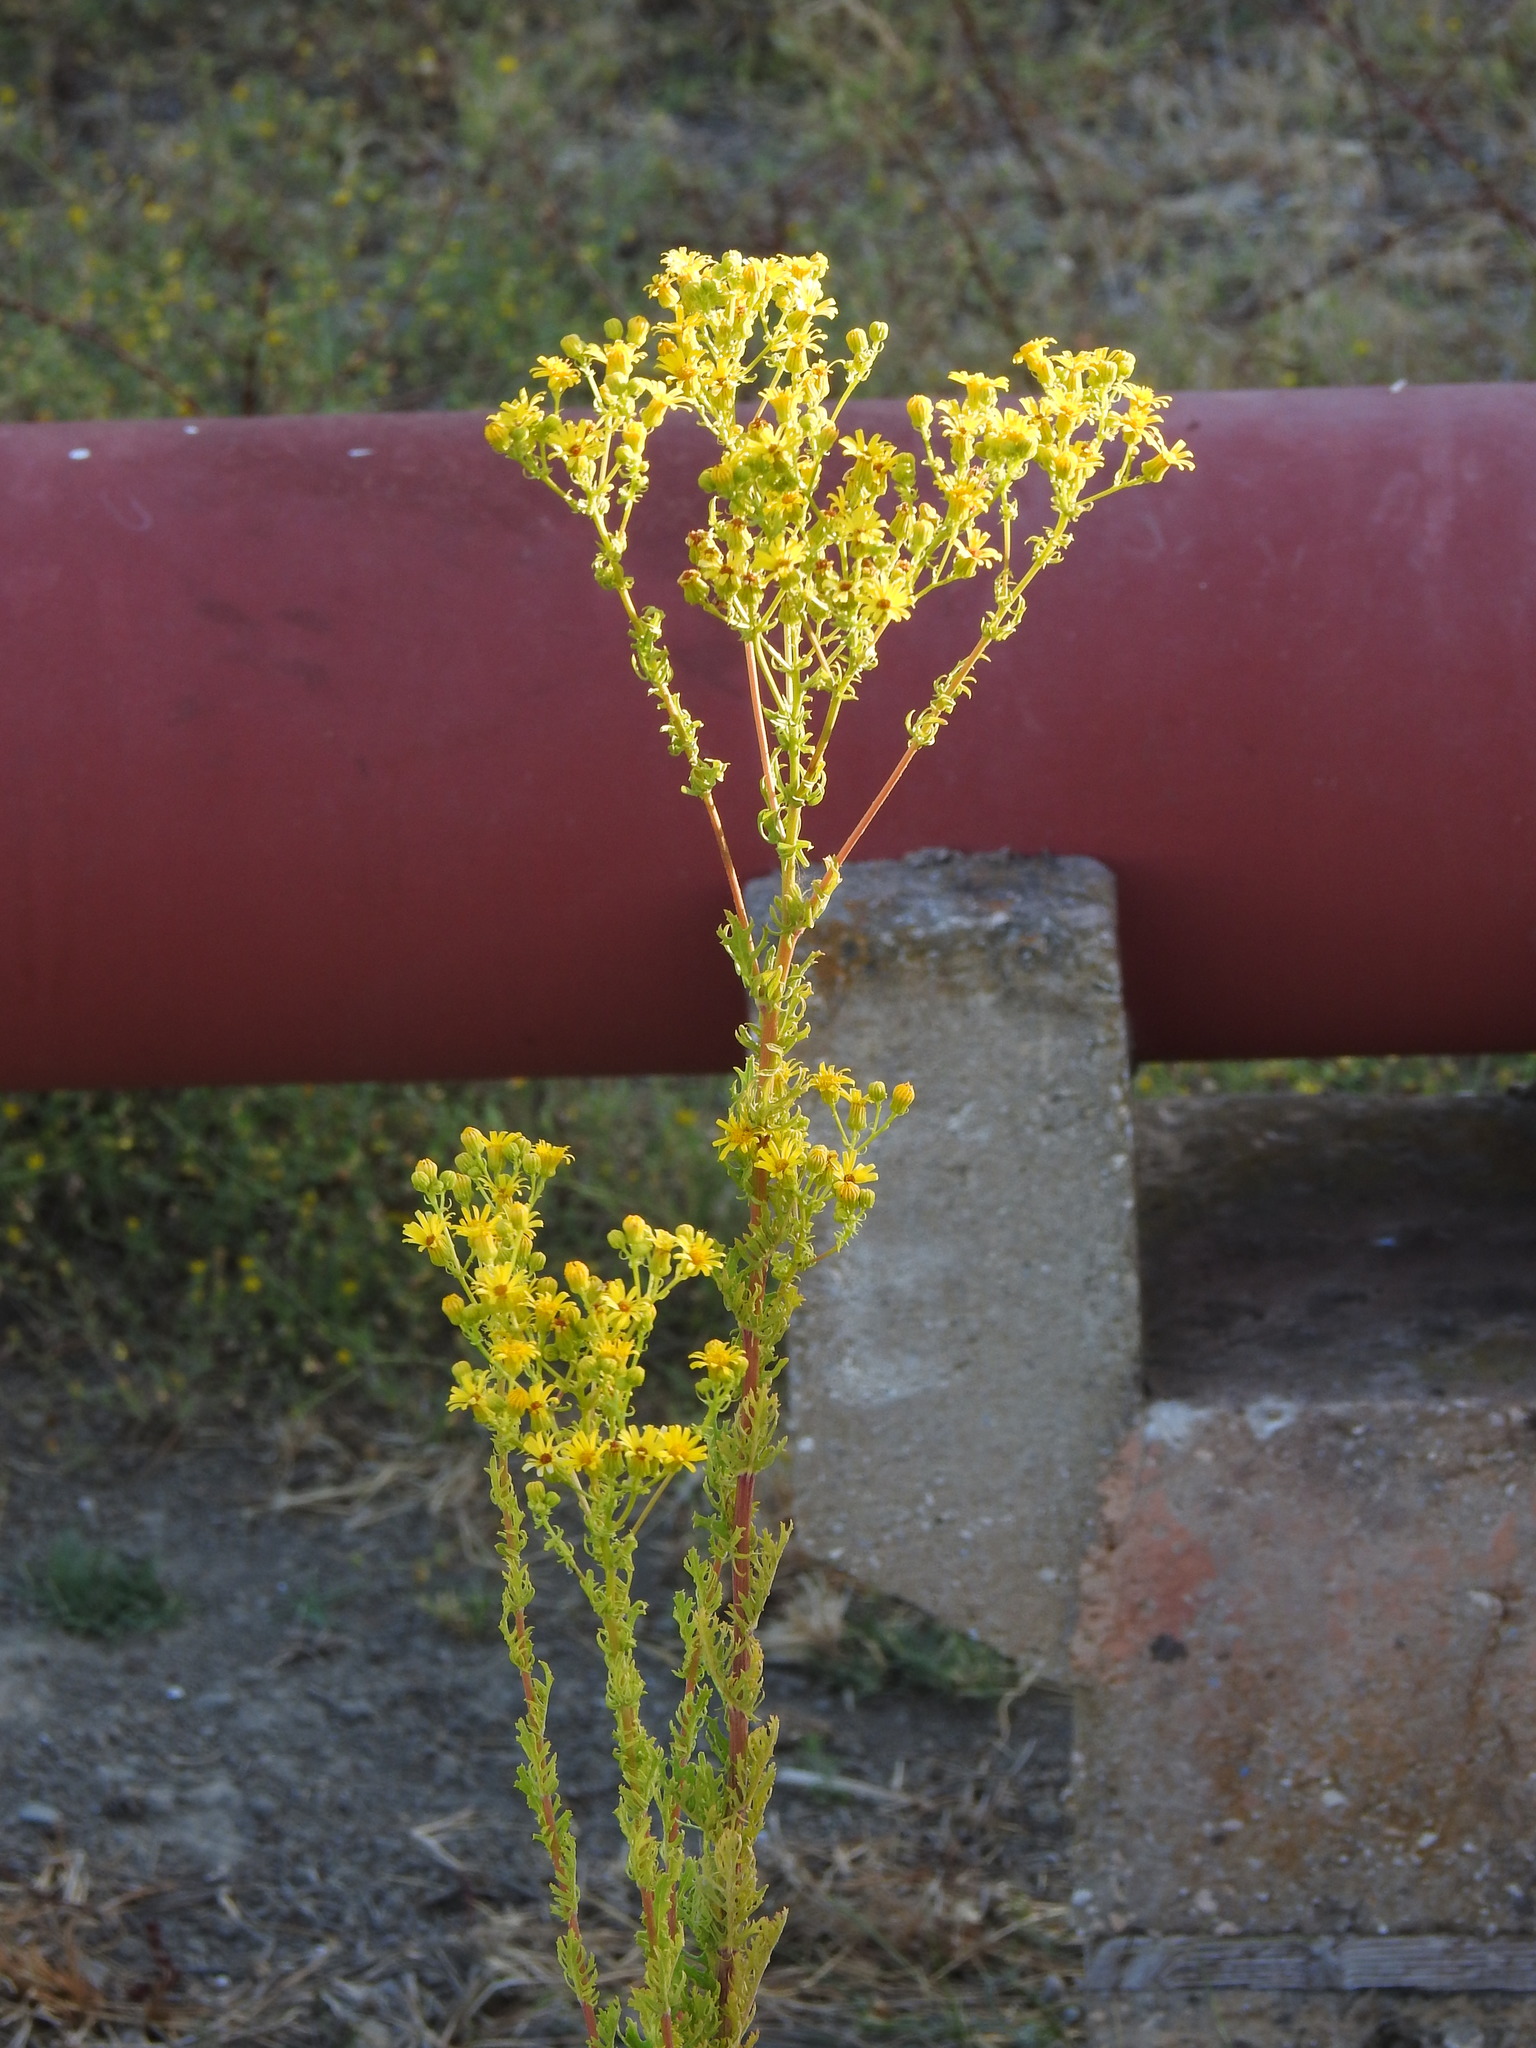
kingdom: Plantae
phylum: Tracheophyta
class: Magnoliopsida
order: Asterales
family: Asteraceae
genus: Jacobaea
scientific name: Jacobaea vulgaris
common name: Stinking willie
